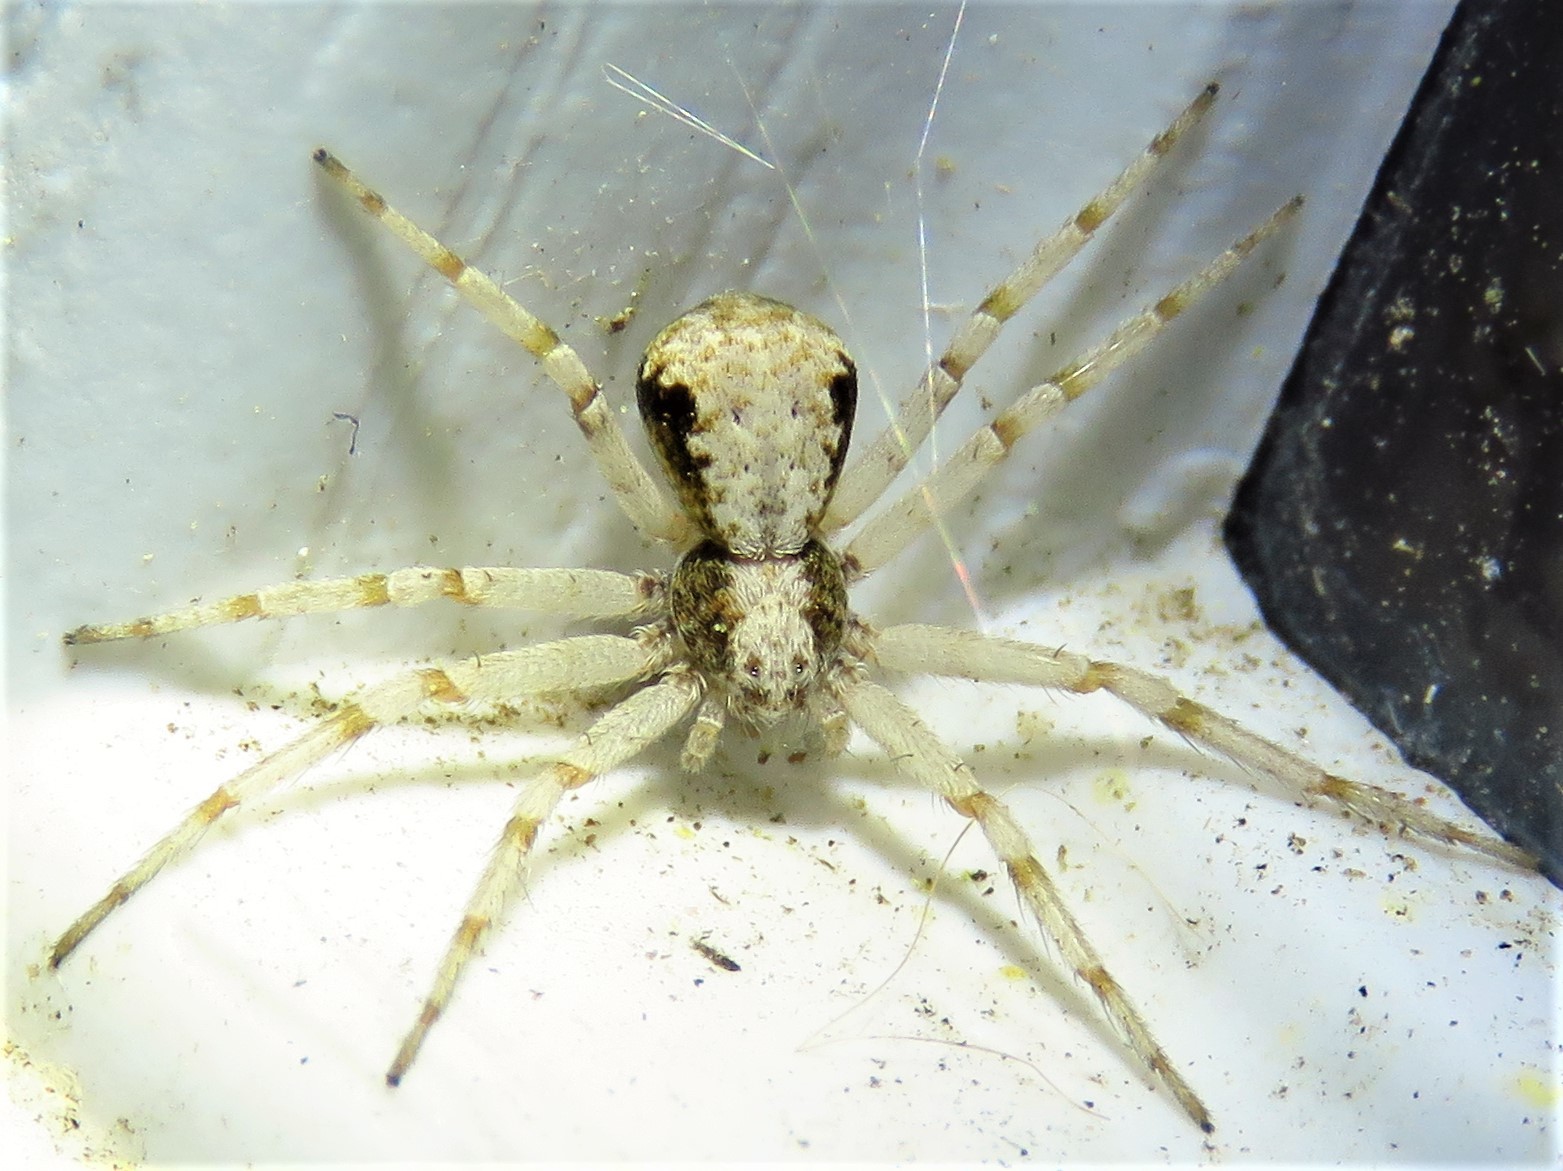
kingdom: Animalia
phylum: Arthropoda
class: Arachnida
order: Araneae
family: Philodromidae
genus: Philodromus
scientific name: Philodromus marxi
